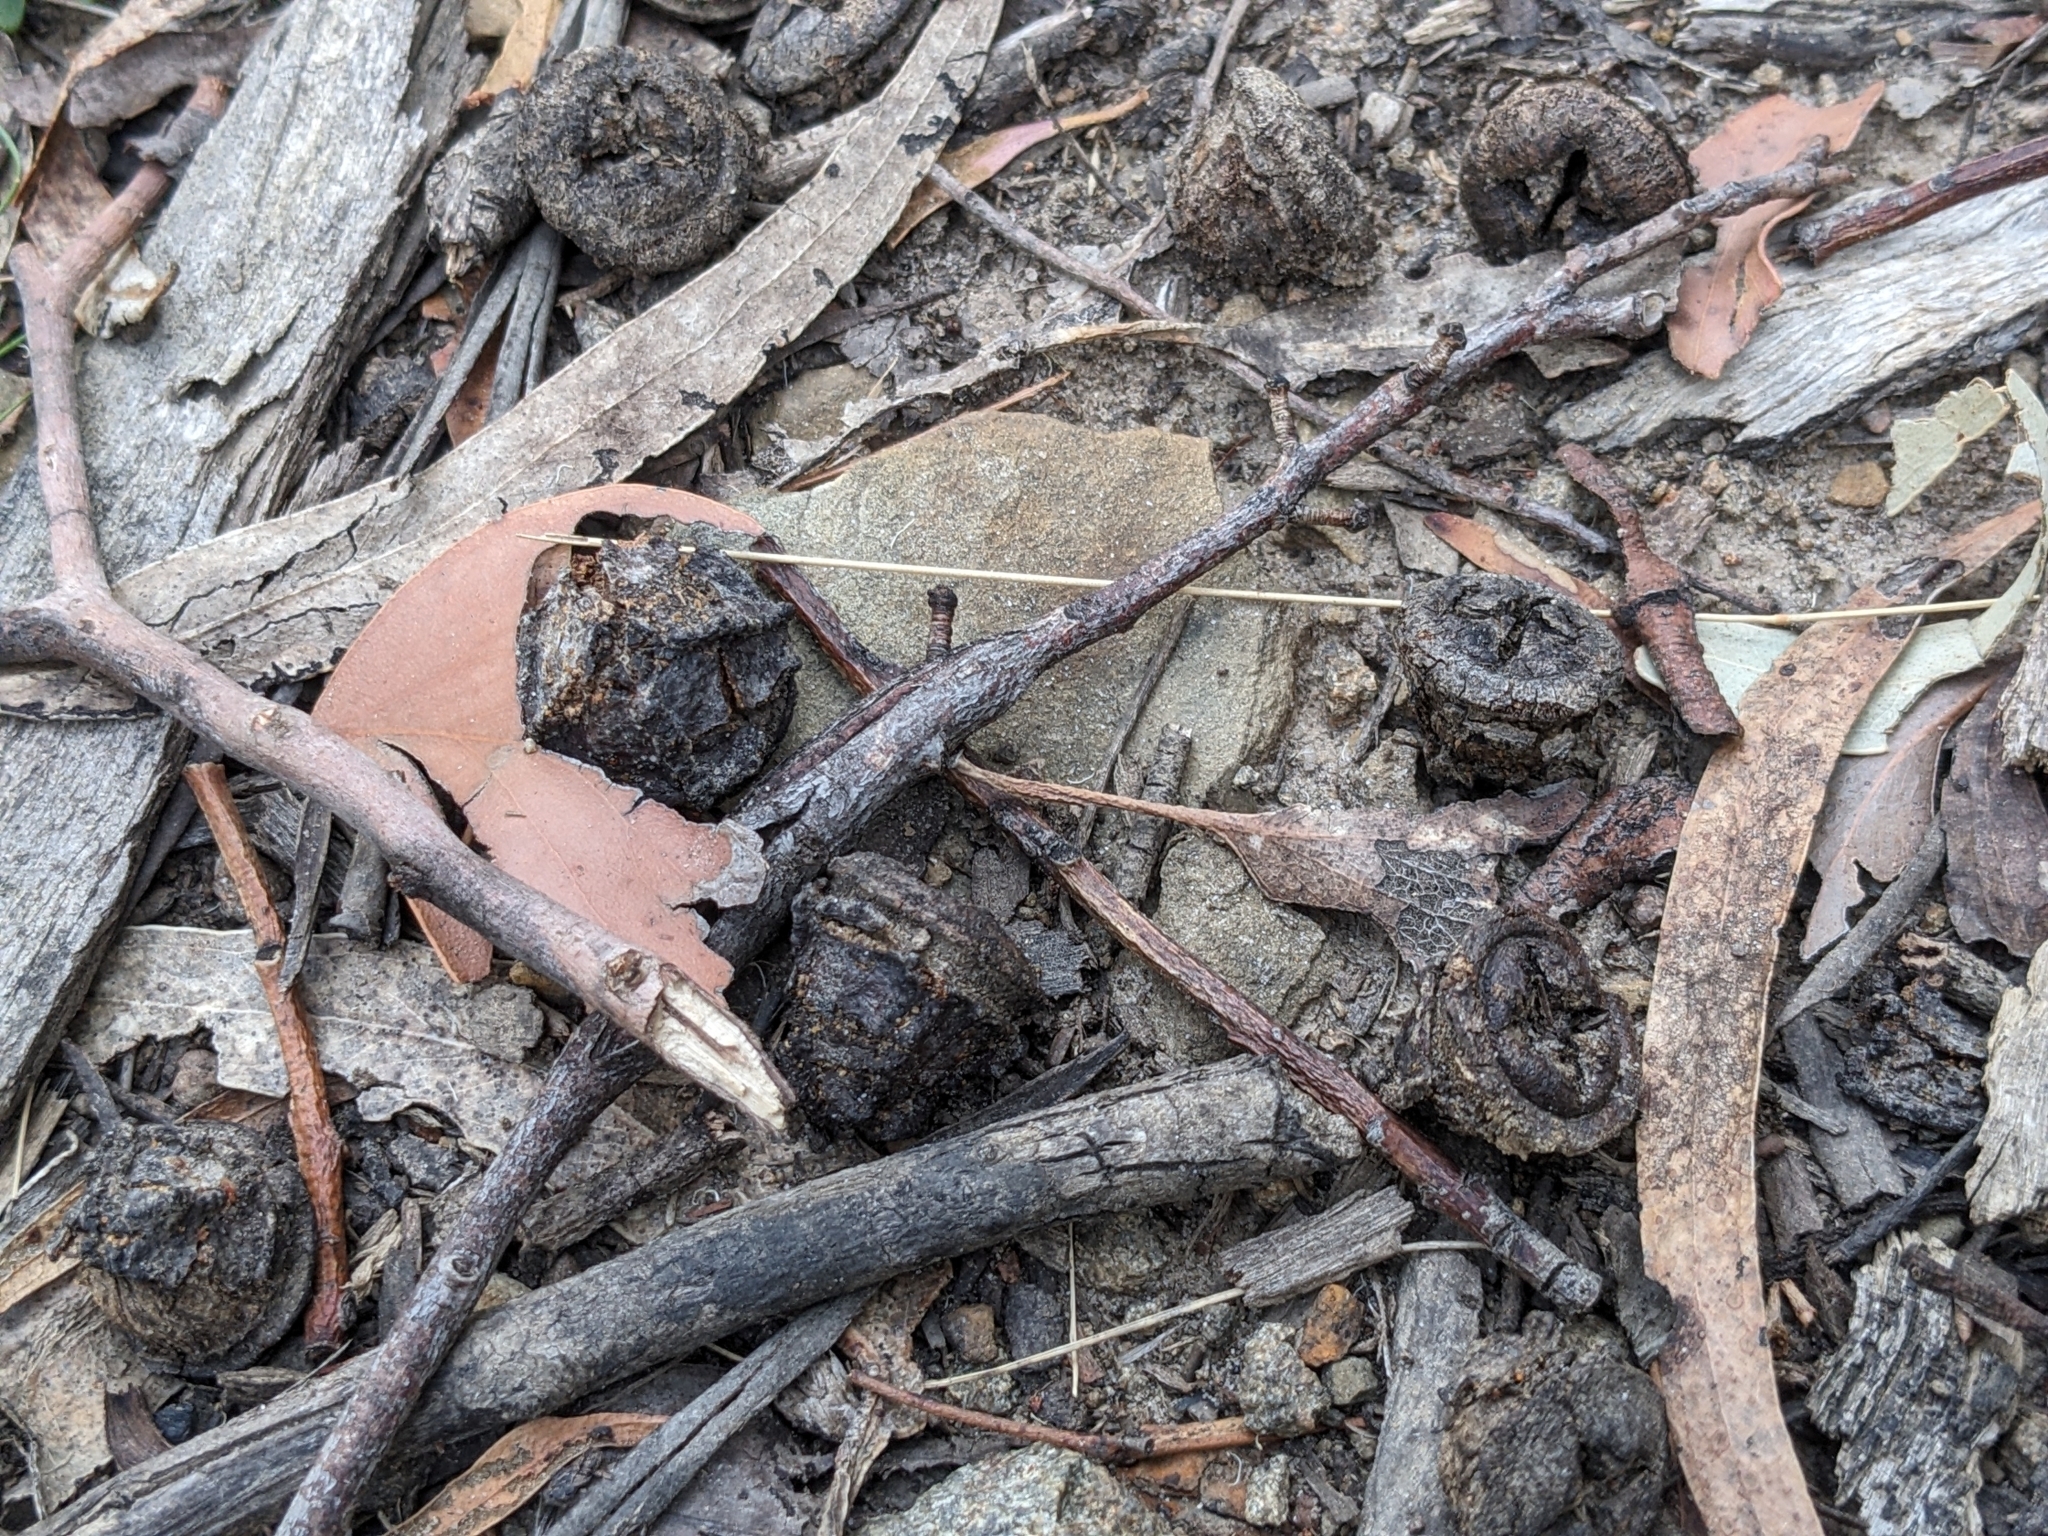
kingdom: Plantae
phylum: Tracheophyta
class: Magnoliopsida
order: Myrtales
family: Myrtaceae
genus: Eucalyptus
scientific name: Eucalyptus globulus
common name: Southern blue-gum
